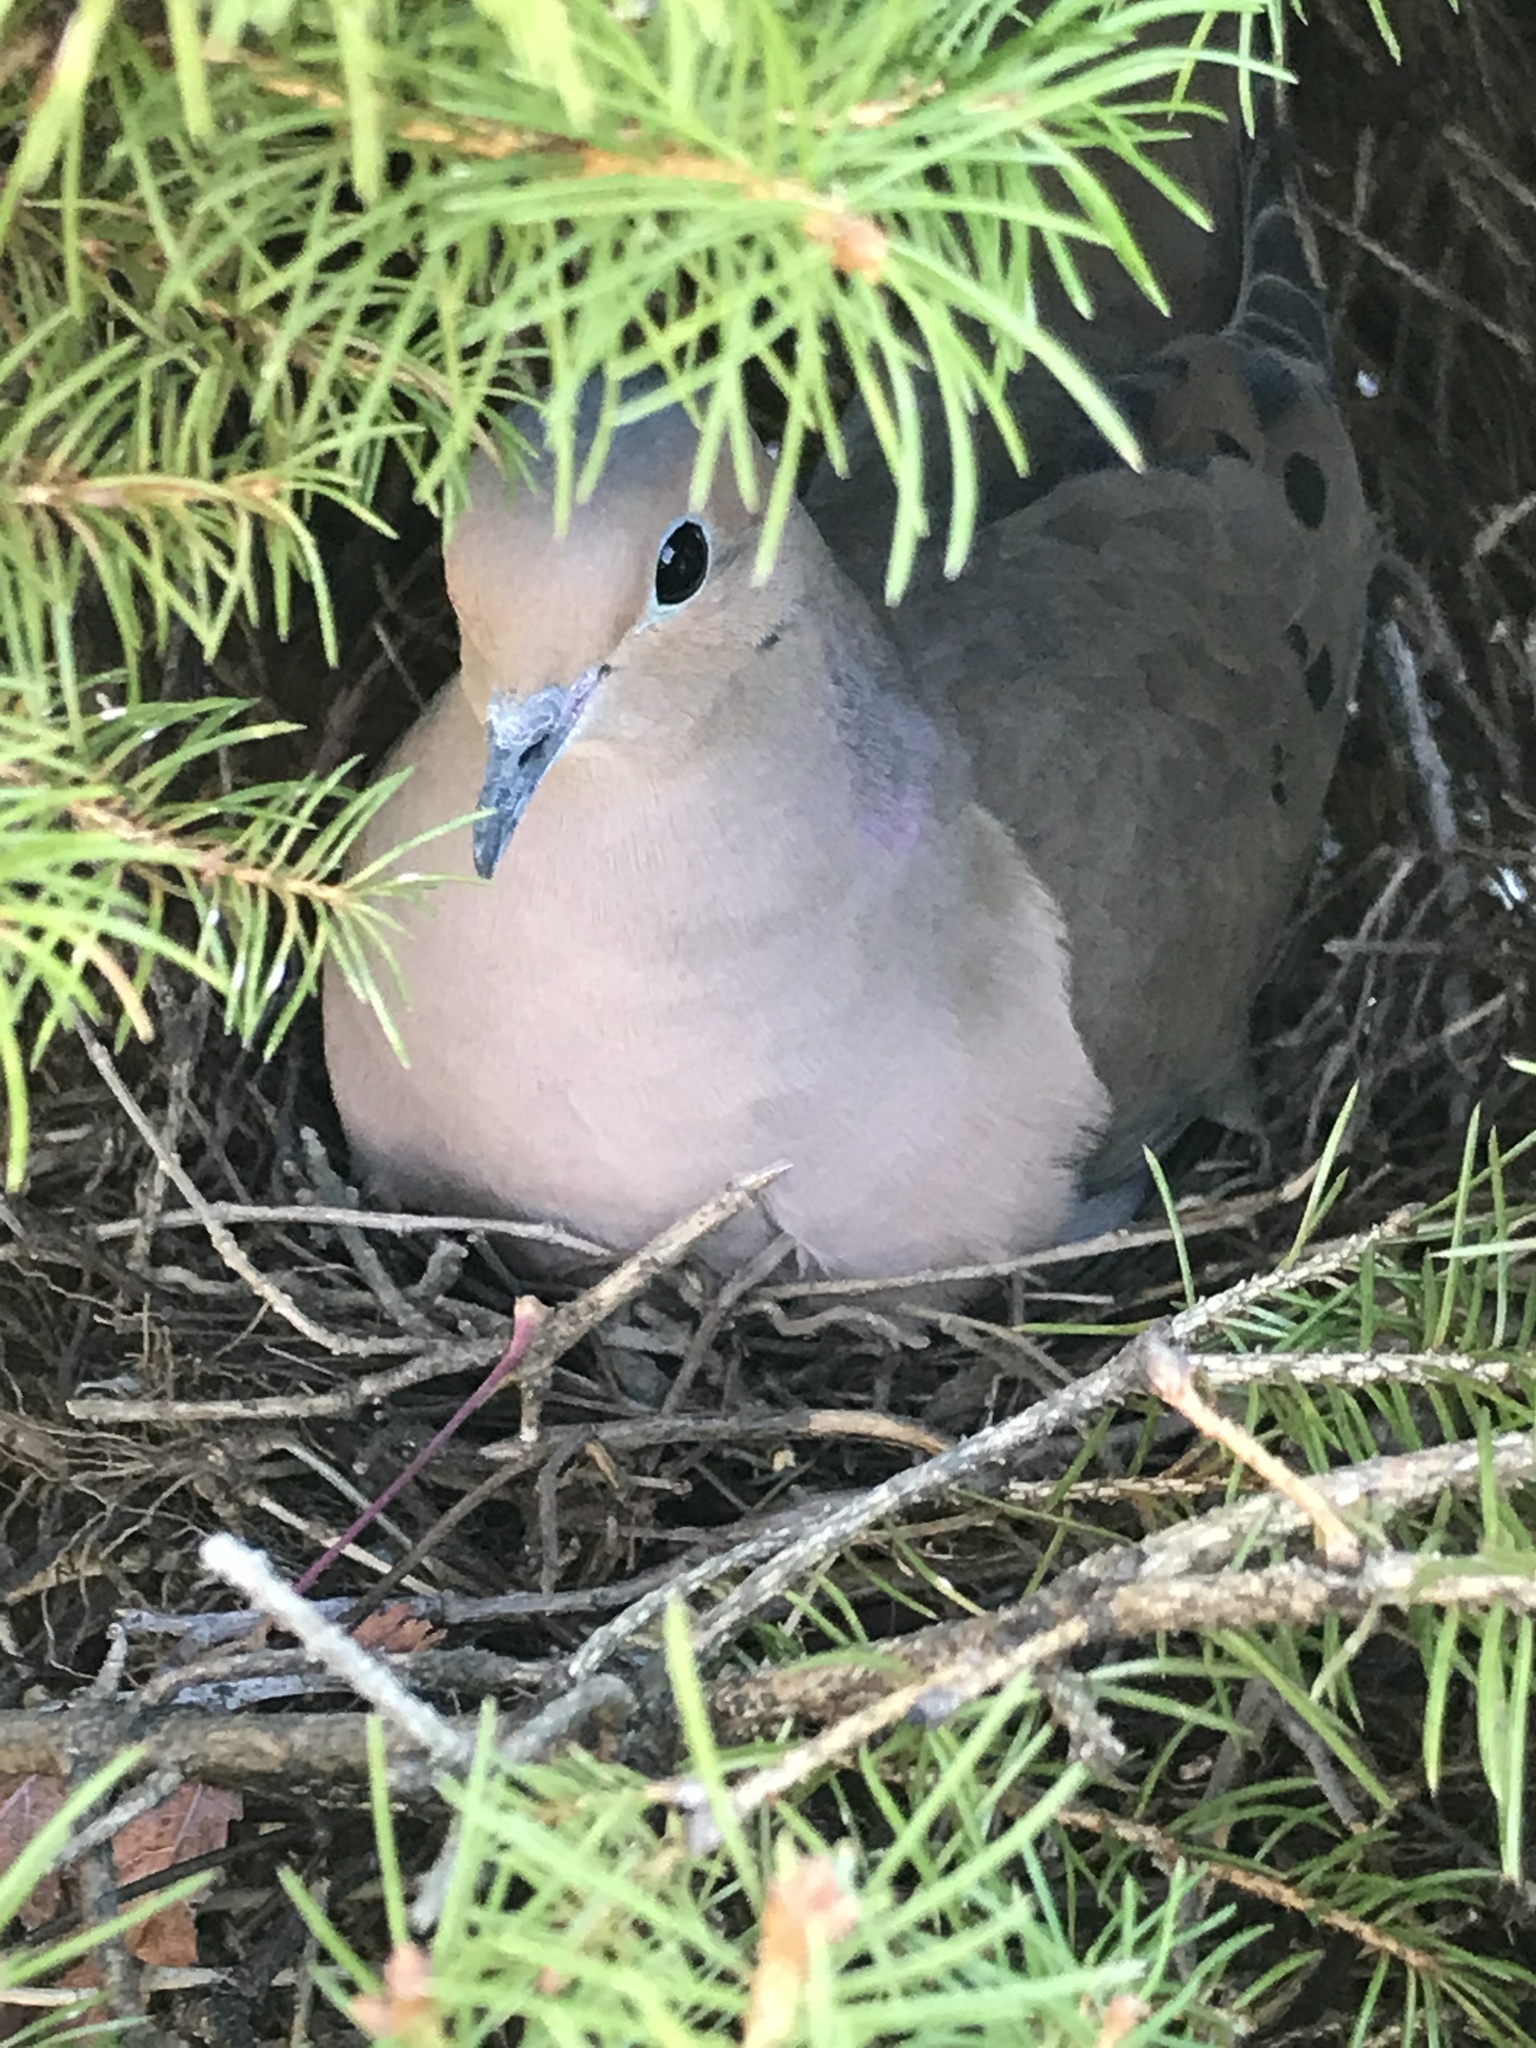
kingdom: Animalia
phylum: Chordata
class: Aves
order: Columbiformes
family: Columbidae
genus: Zenaida
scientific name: Zenaida macroura
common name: Mourning dove
